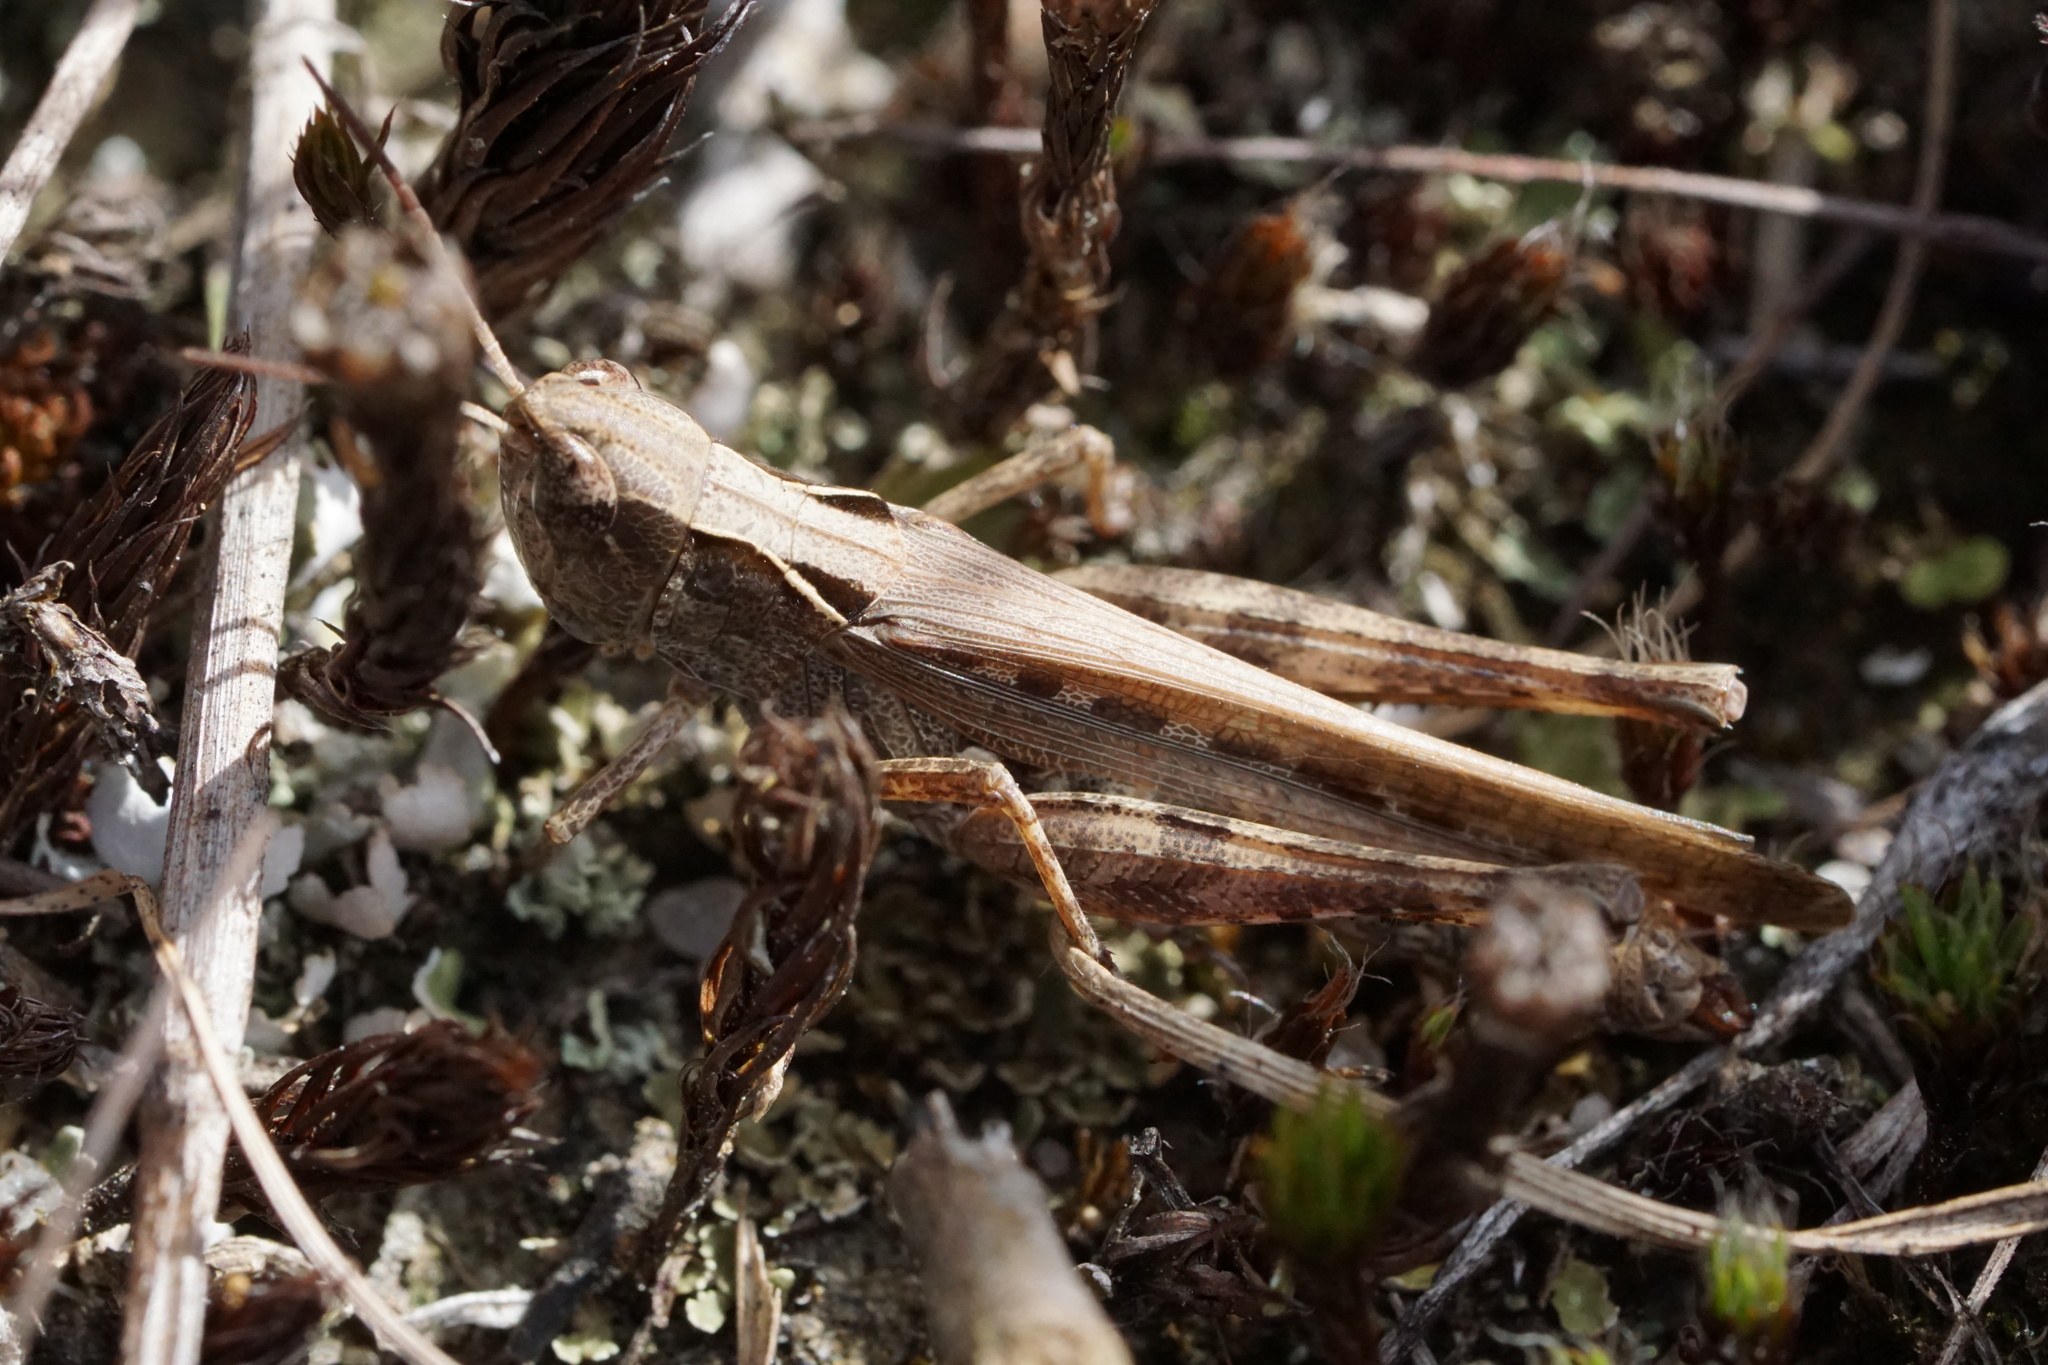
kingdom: Animalia
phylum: Arthropoda
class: Insecta
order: Orthoptera
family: Acrididae
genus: Orphulella
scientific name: Orphulella pelidna
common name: Spotted-wing grasshopper
